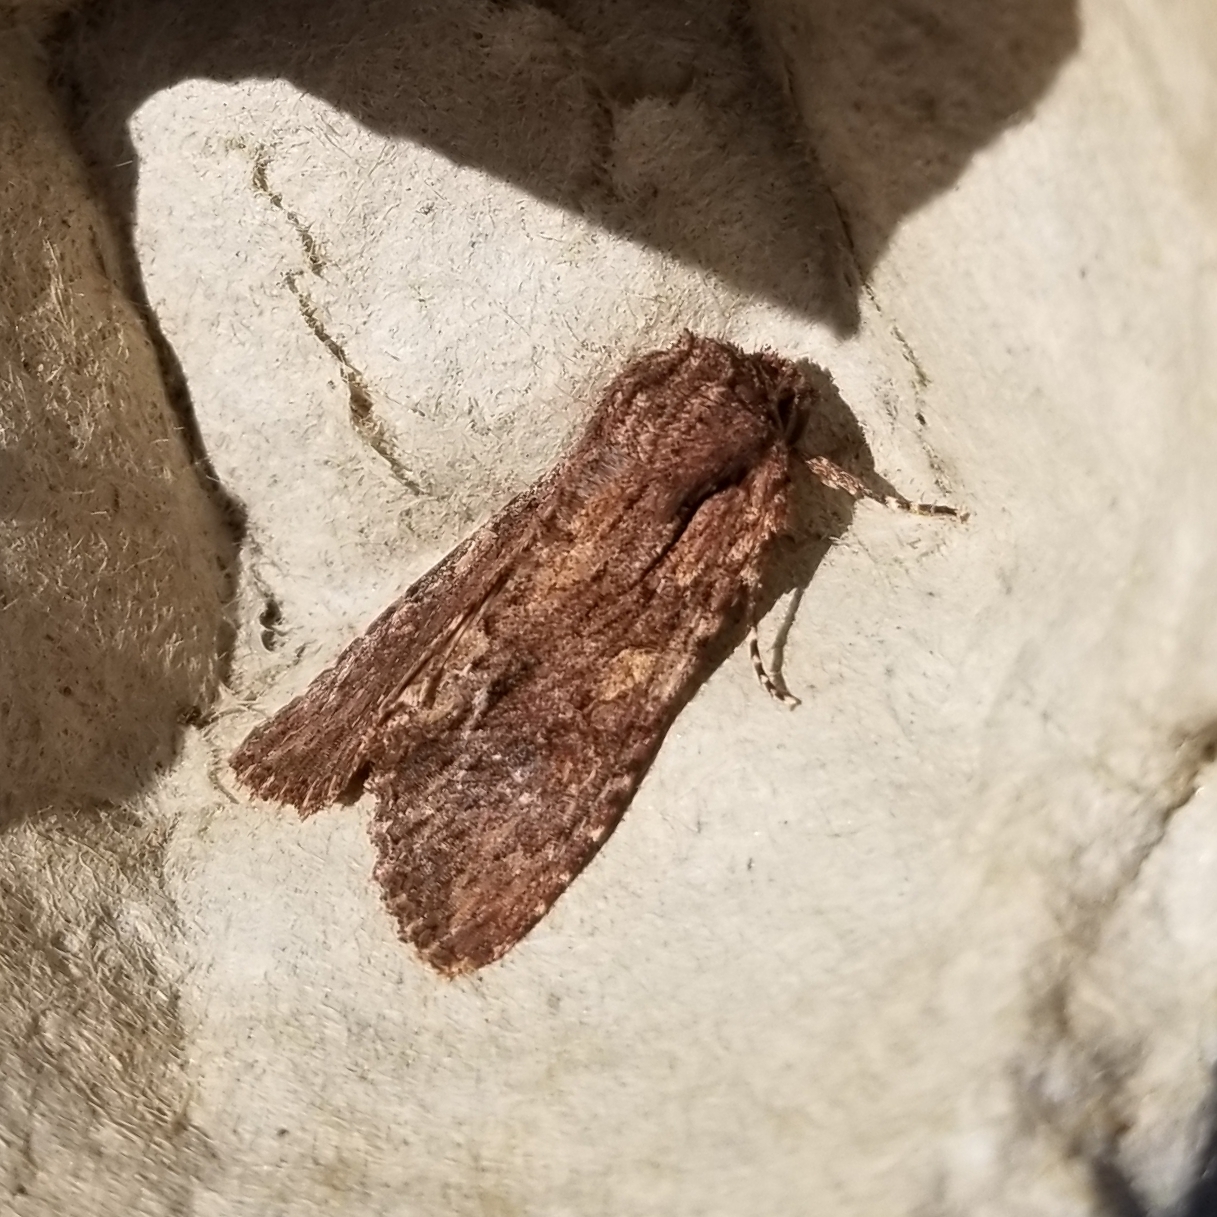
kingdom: Animalia
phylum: Arthropoda
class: Insecta
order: Lepidoptera
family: Noctuidae
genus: Achatia
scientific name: Achatia confusa
